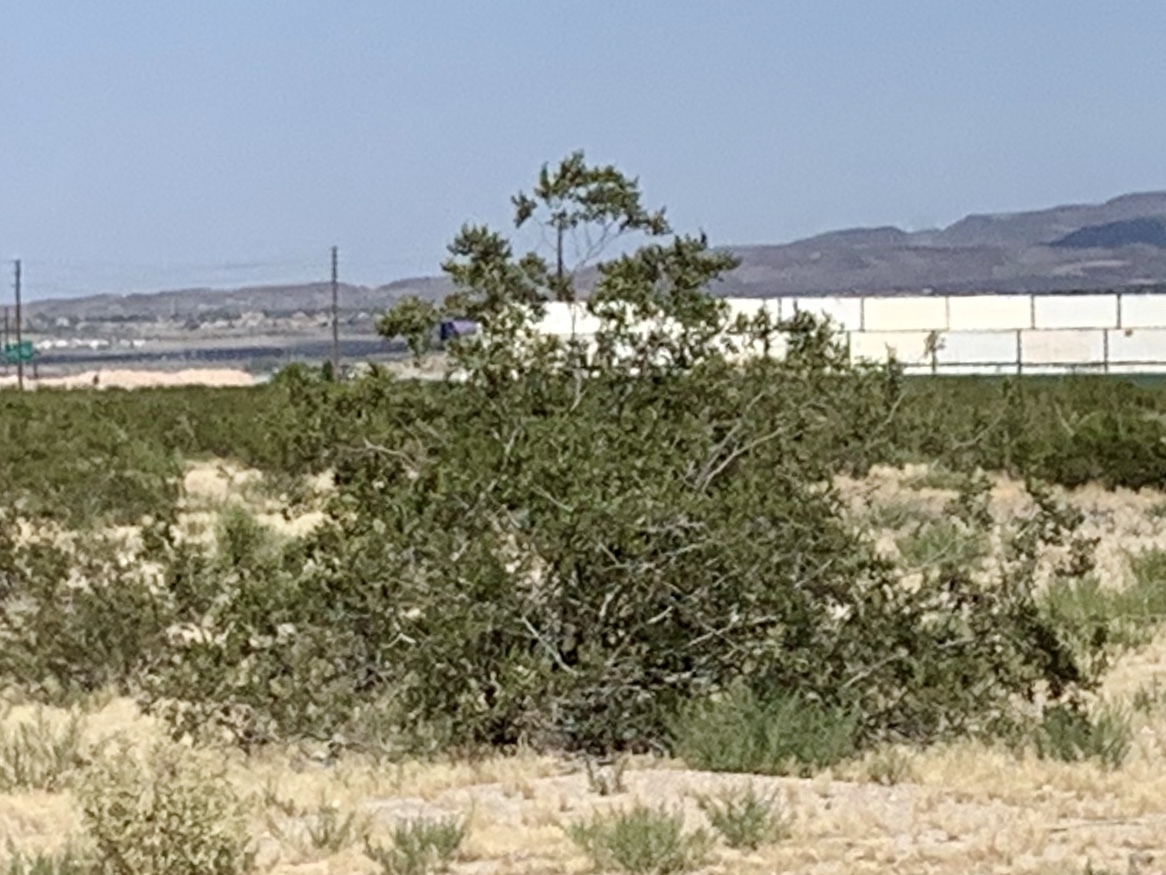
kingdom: Plantae
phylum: Tracheophyta
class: Magnoliopsida
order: Zygophyllales
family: Zygophyllaceae
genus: Larrea
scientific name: Larrea tridentata
